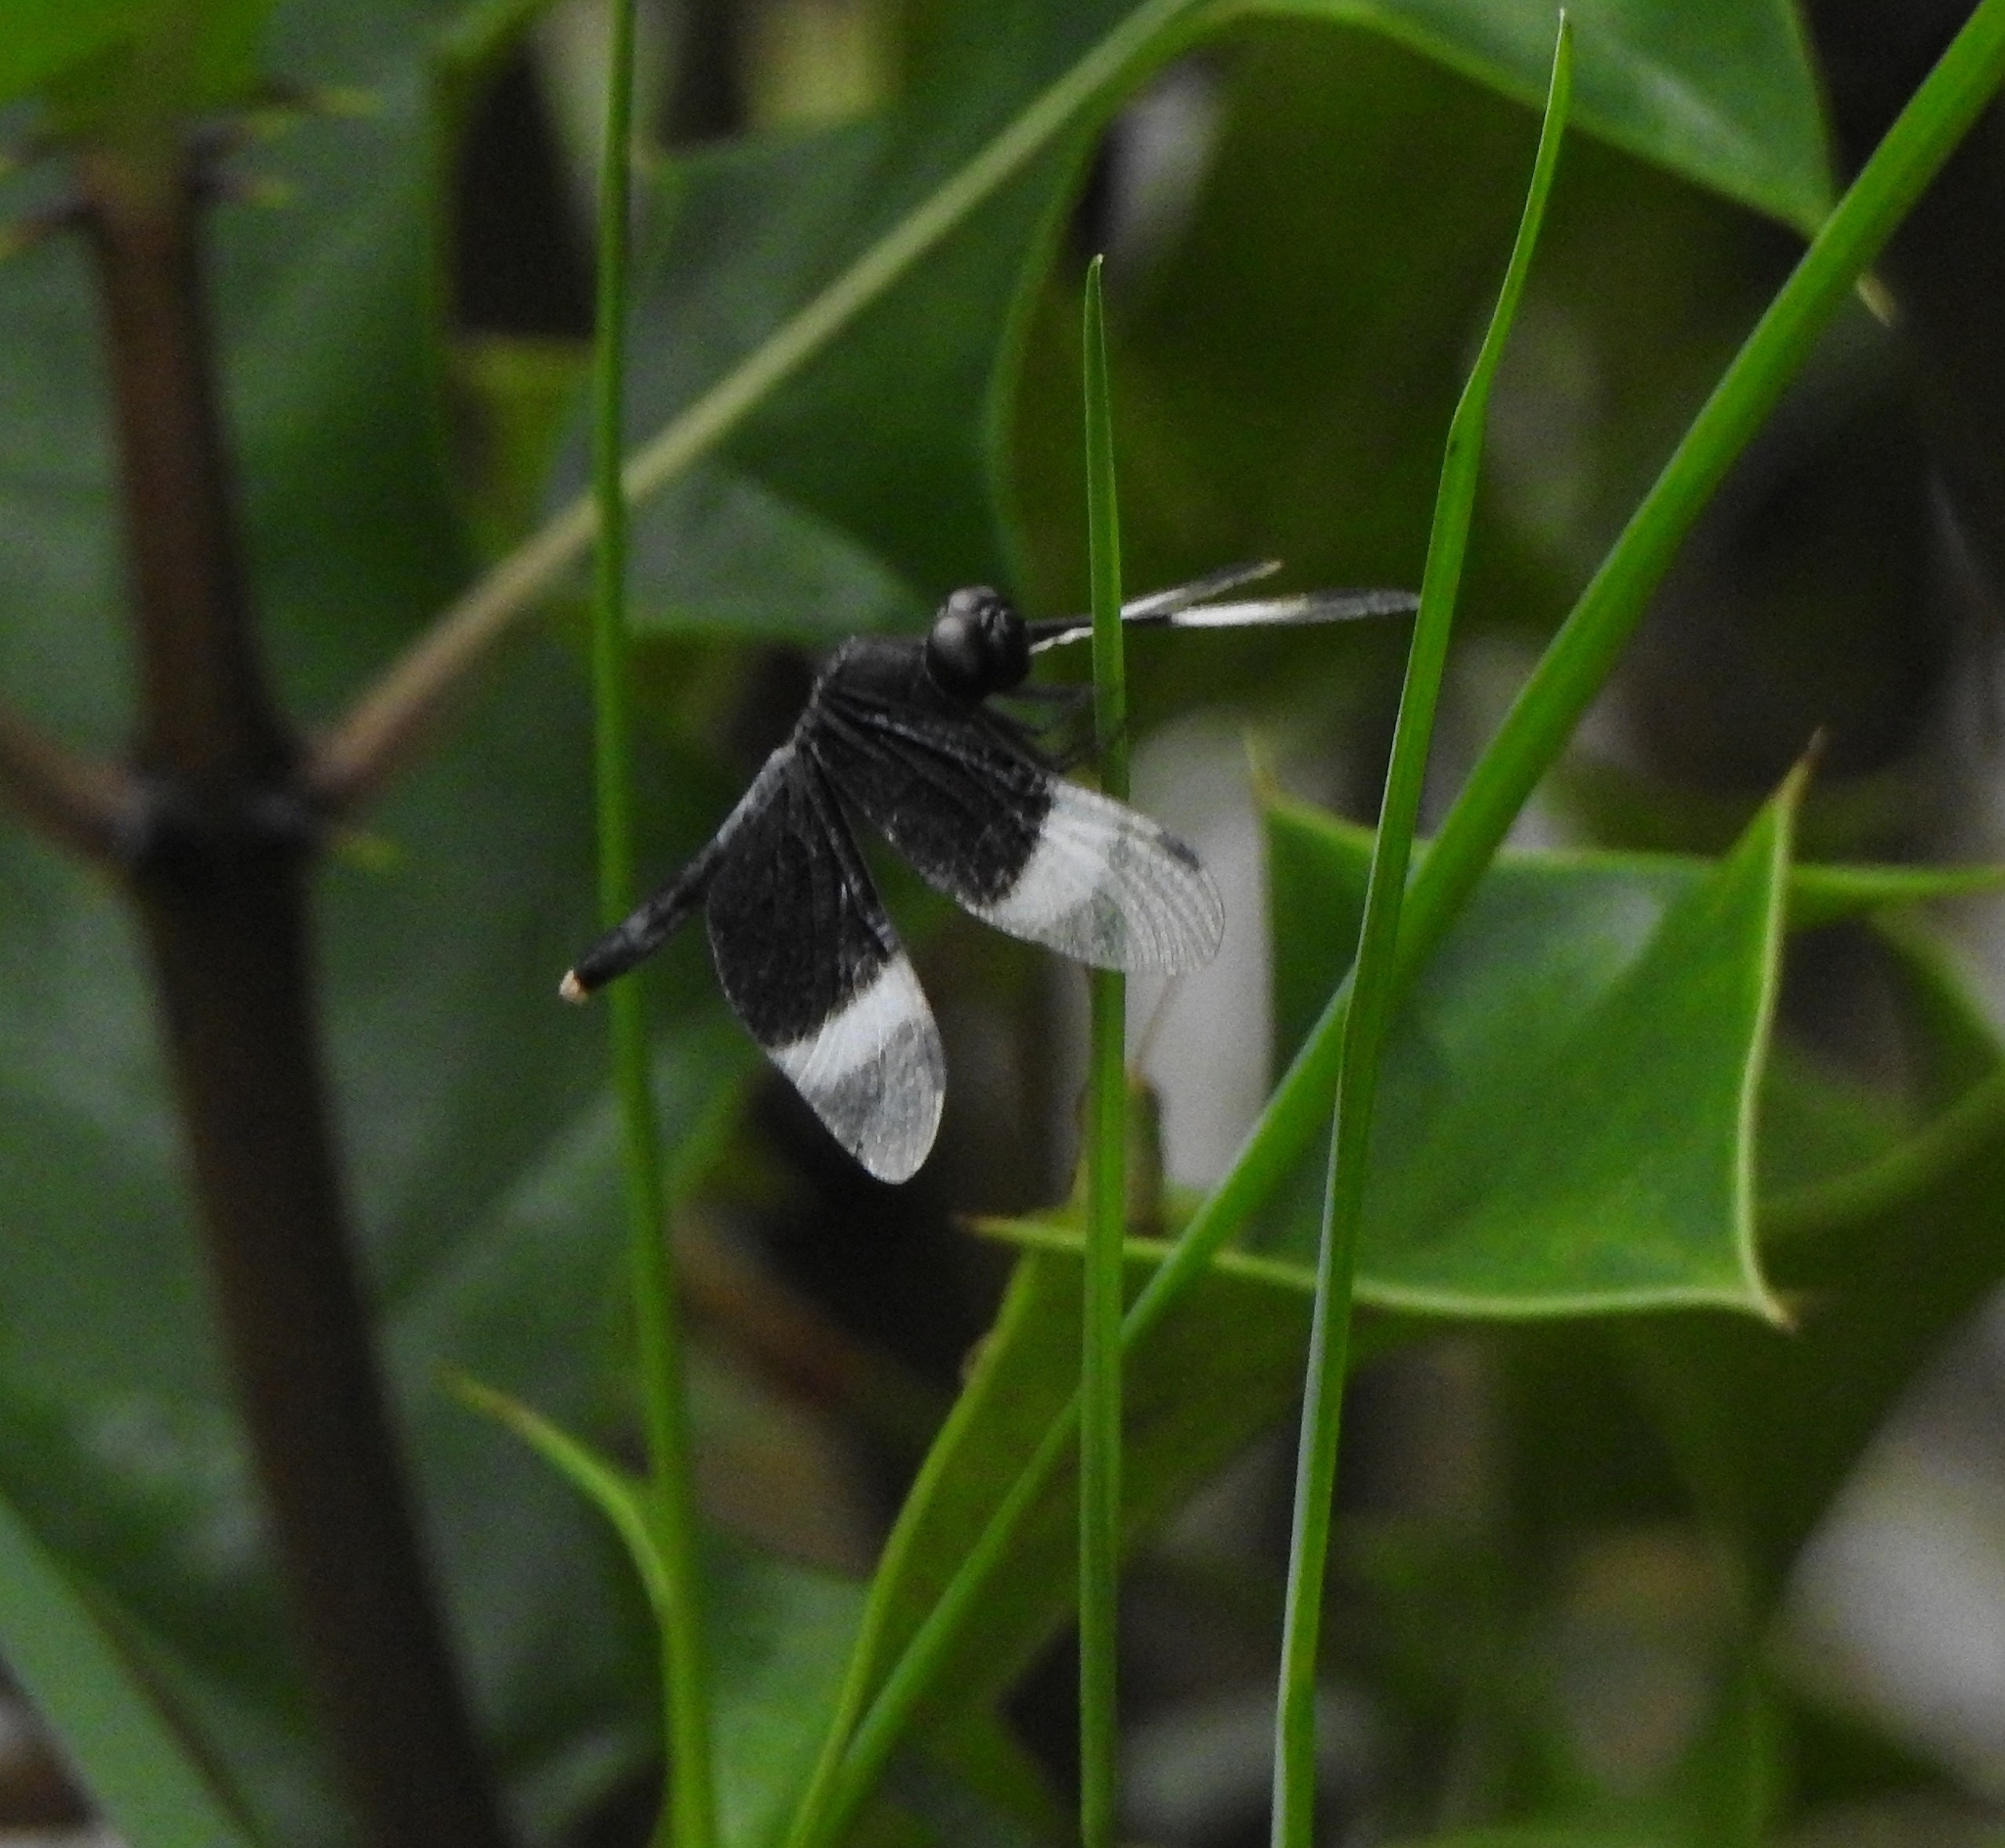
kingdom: Animalia
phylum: Arthropoda
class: Insecta
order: Odonata
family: Libellulidae
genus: Neurothemis
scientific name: Neurothemis tullia
